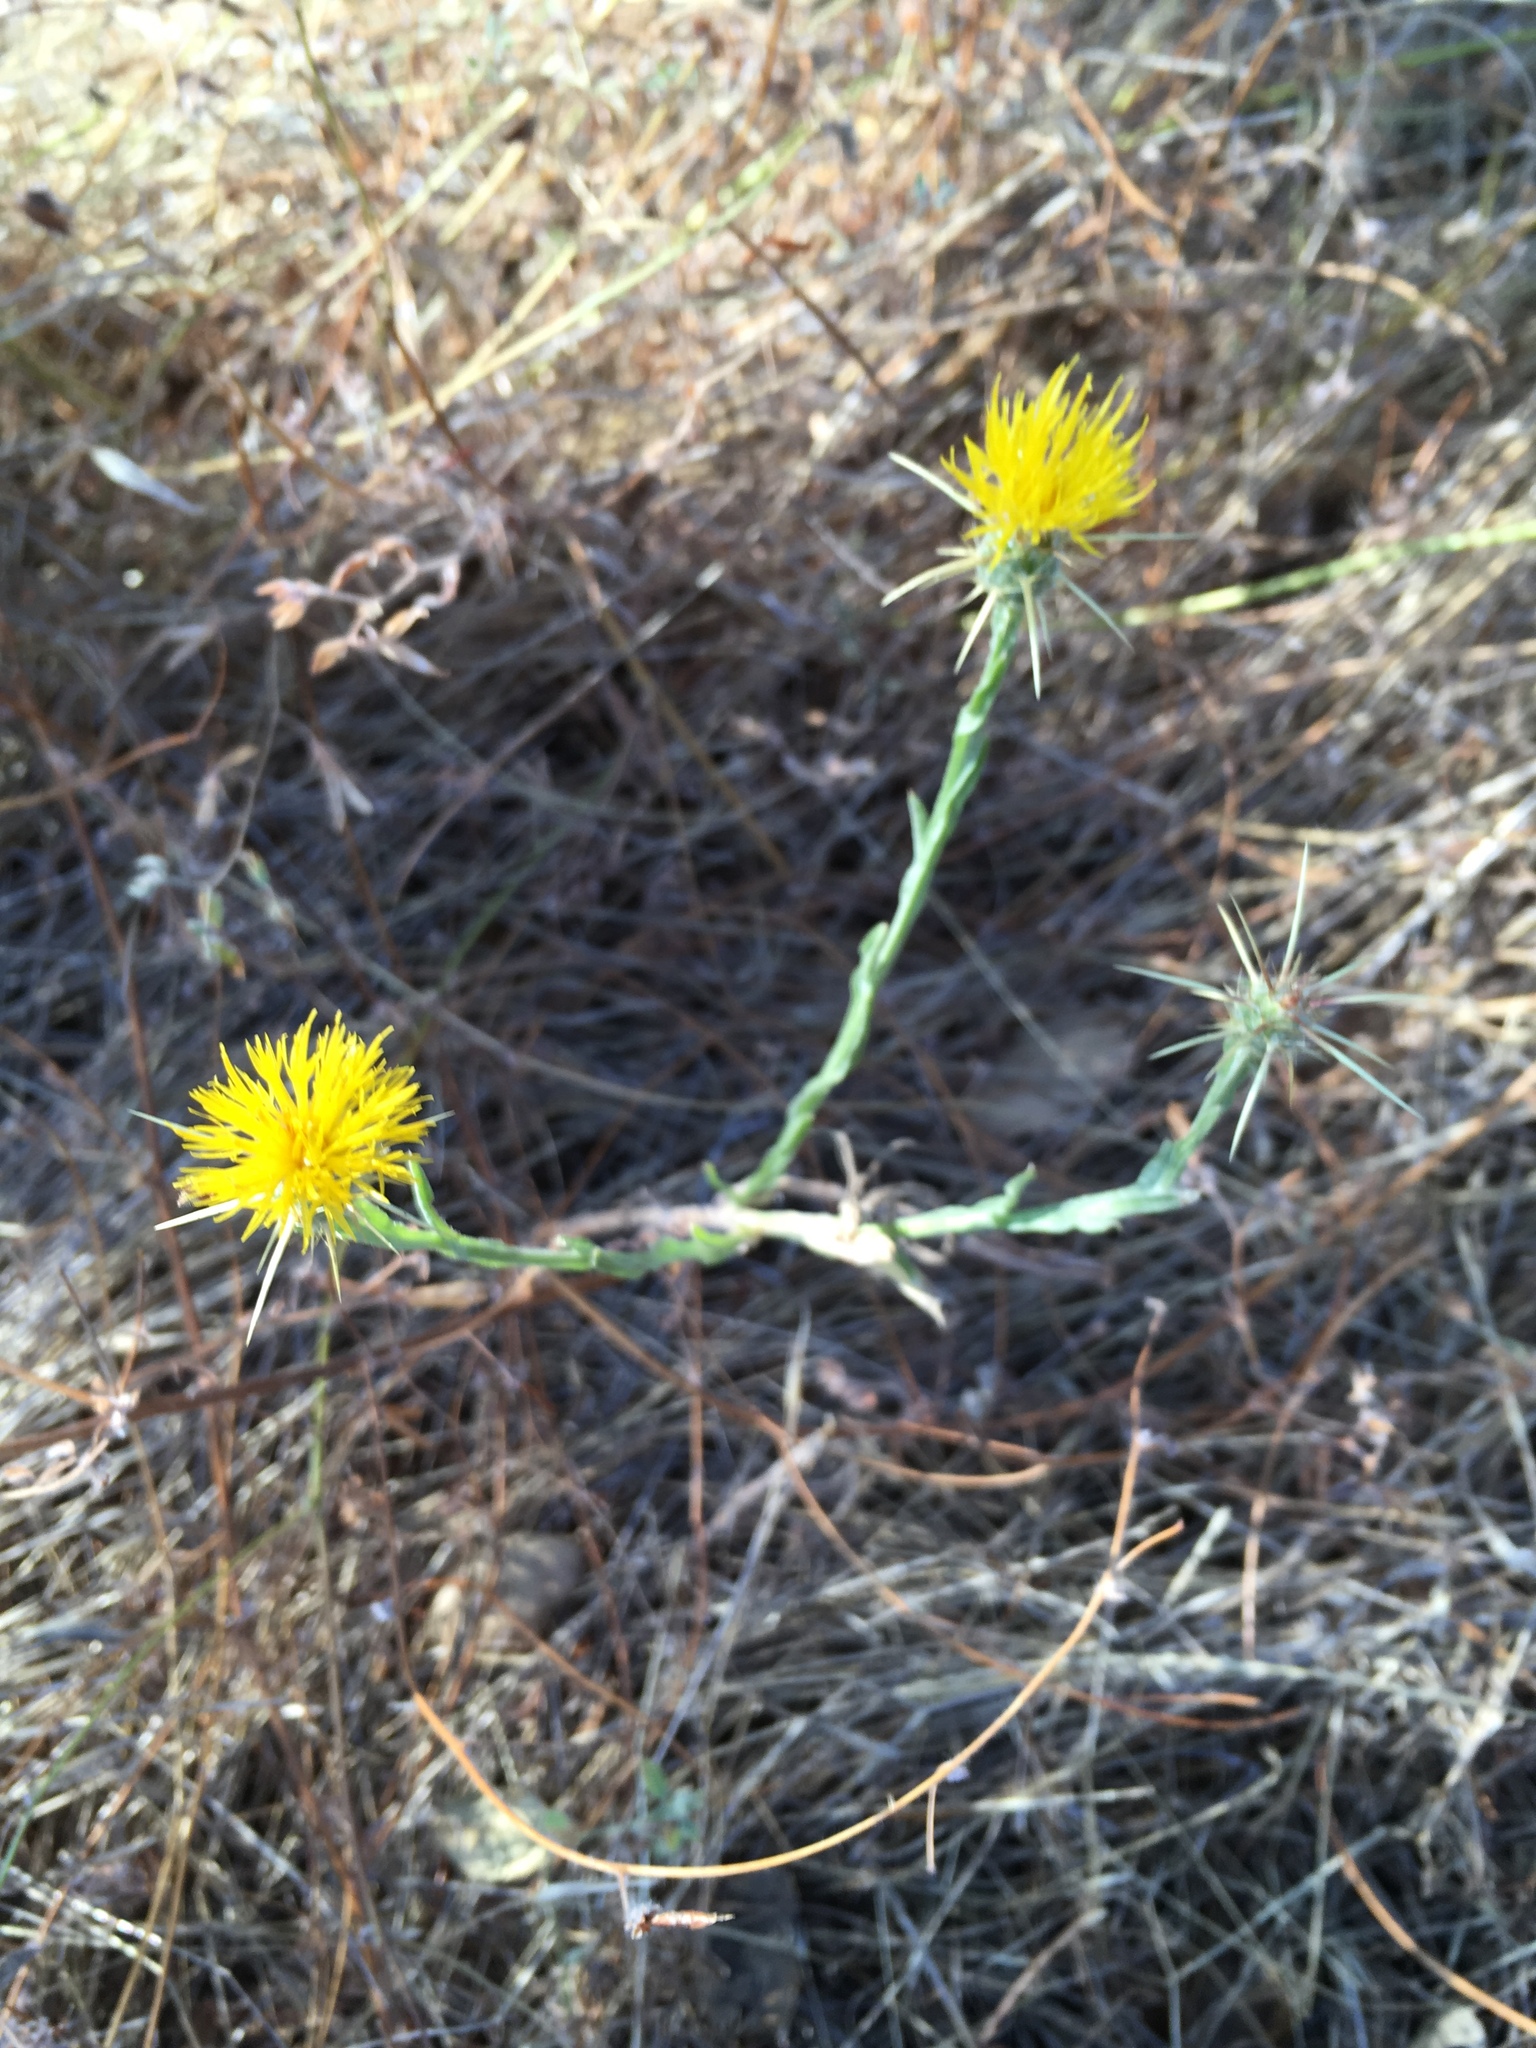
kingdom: Plantae
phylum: Tracheophyta
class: Magnoliopsida
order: Asterales
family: Asteraceae
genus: Centaurea
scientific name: Centaurea solstitialis
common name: Yellow star-thistle
